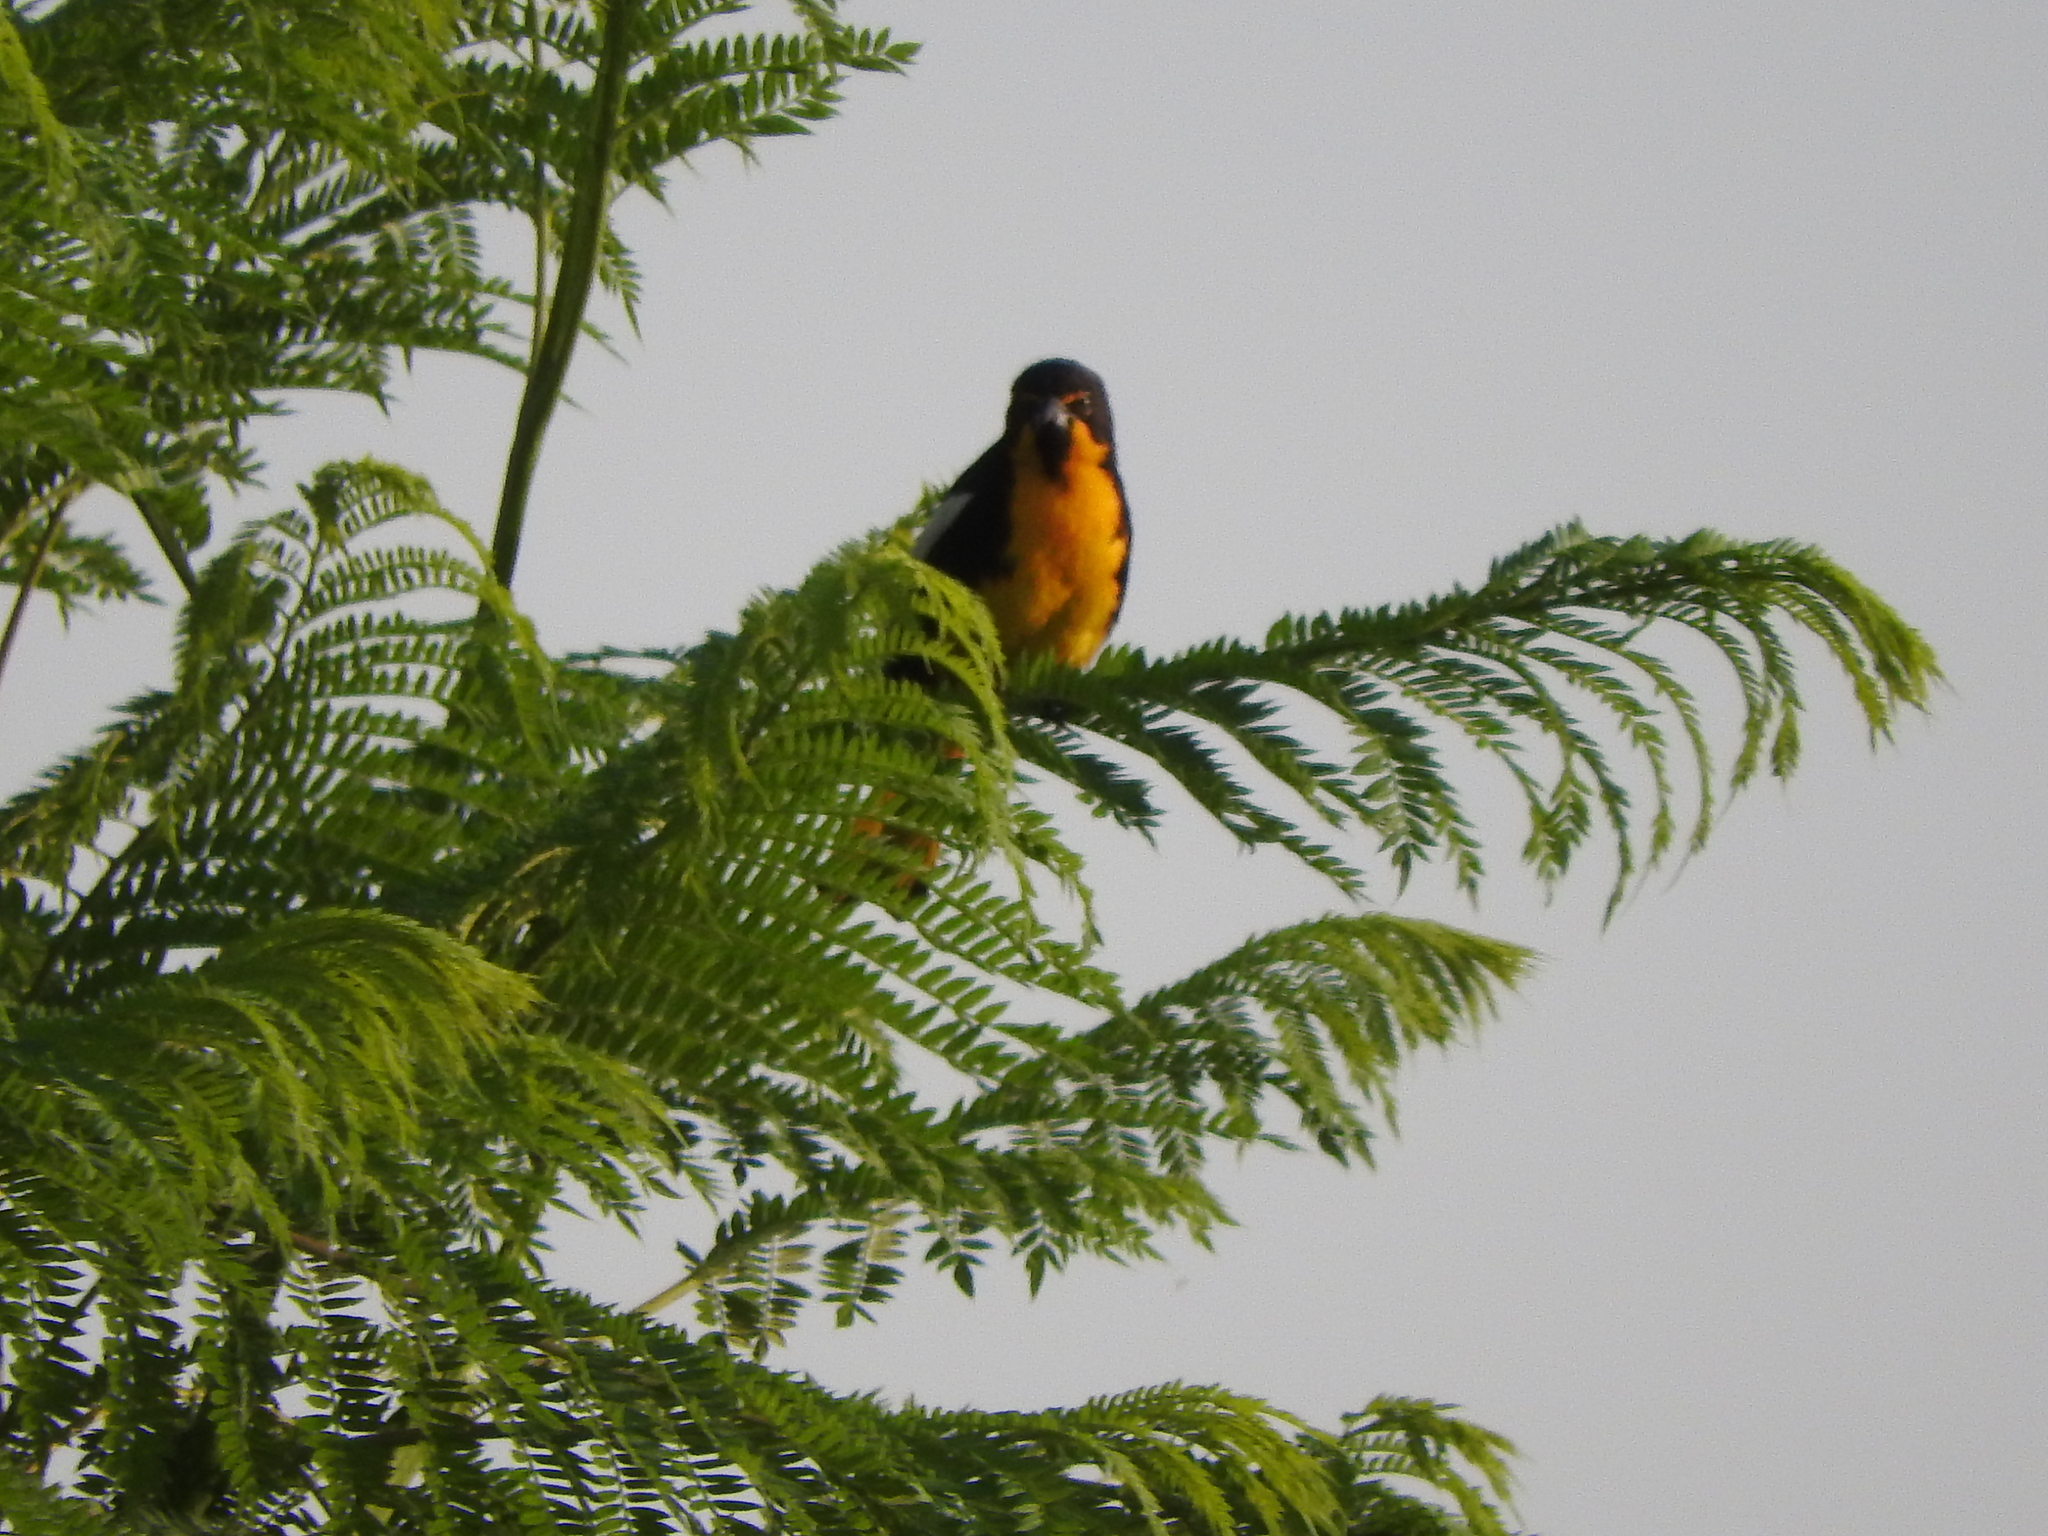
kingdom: Animalia
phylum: Chordata
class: Aves
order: Passeriformes
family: Icteridae
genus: Icterus
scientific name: Icterus abeillei
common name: Black-backed oriole
